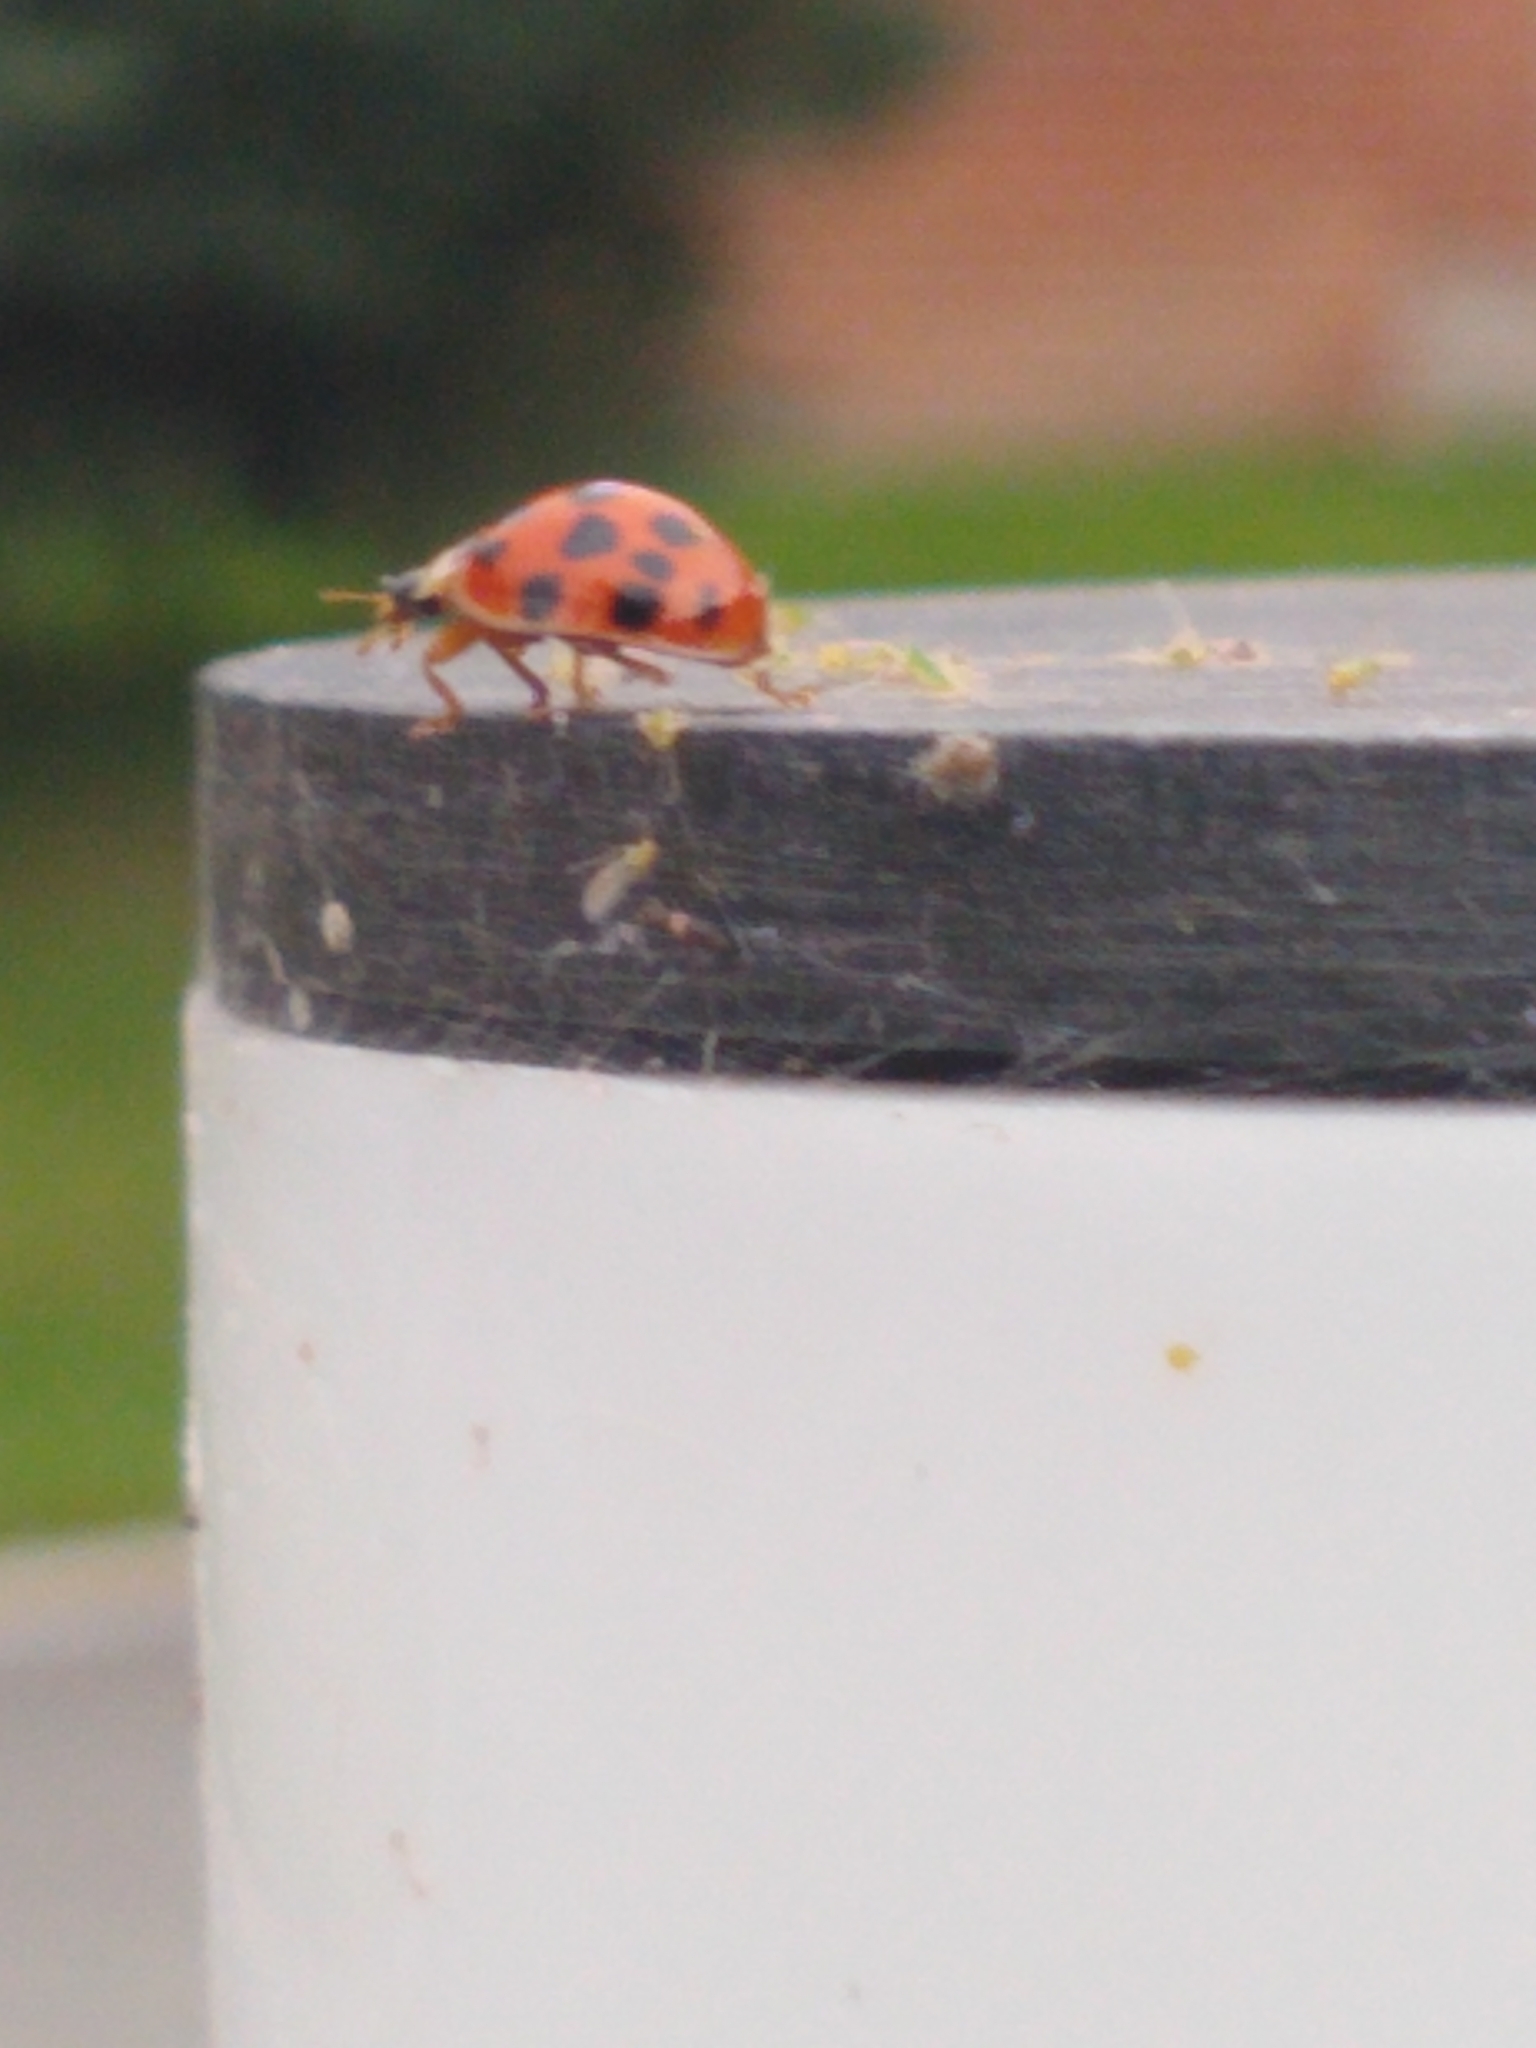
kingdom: Animalia
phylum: Arthropoda
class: Insecta
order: Coleoptera
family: Coccinellidae
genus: Harmonia
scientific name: Harmonia axyridis
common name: Harlequin ladybird
